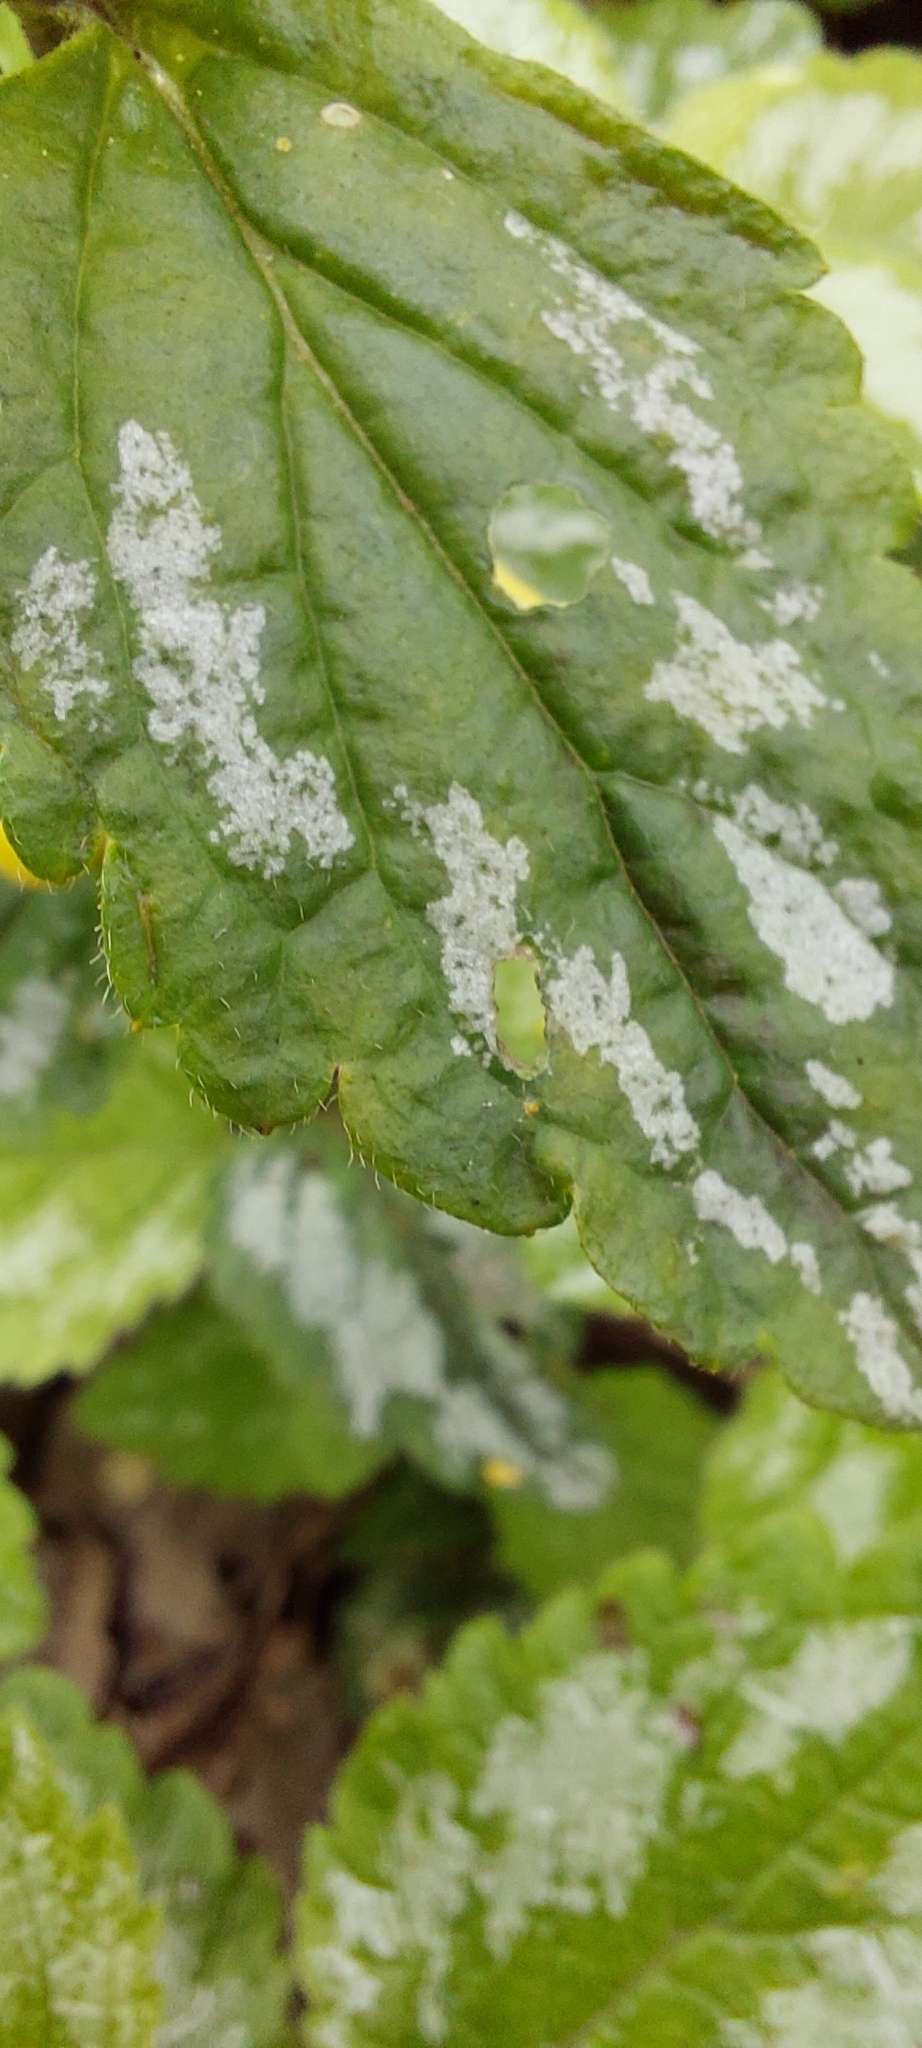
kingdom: Plantae
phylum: Tracheophyta
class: Magnoliopsida
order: Lamiales
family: Lamiaceae
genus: Lamium
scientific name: Lamium galeobdolon
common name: Yellow archangel
